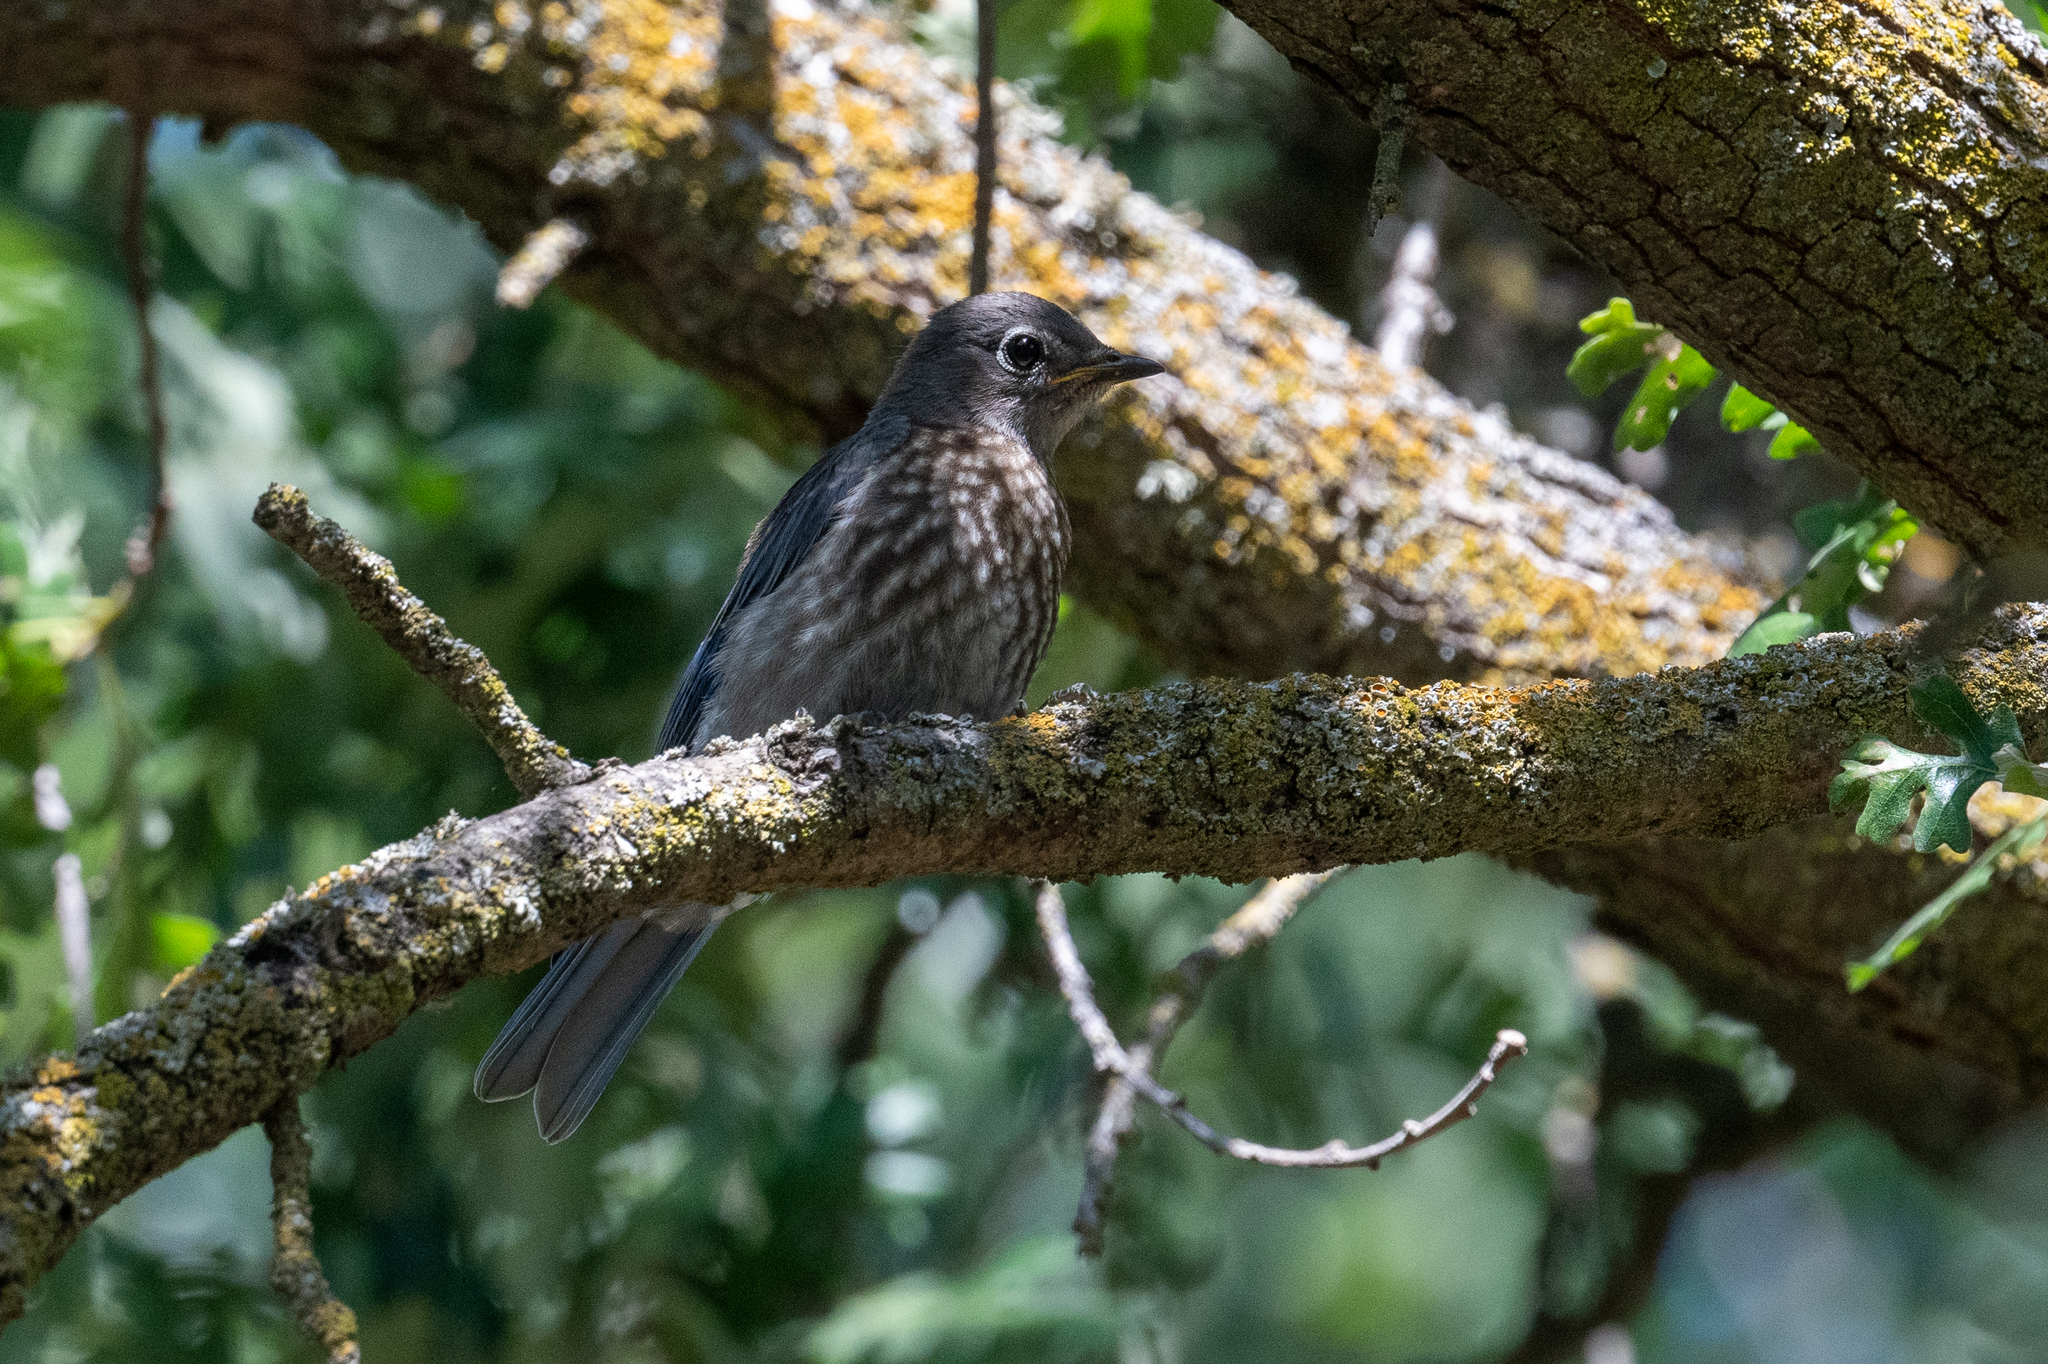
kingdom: Animalia
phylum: Chordata
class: Aves
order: Passeriformes
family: Turdidae
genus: Sialia
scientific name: Sialia mexicana
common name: Western bluebird
